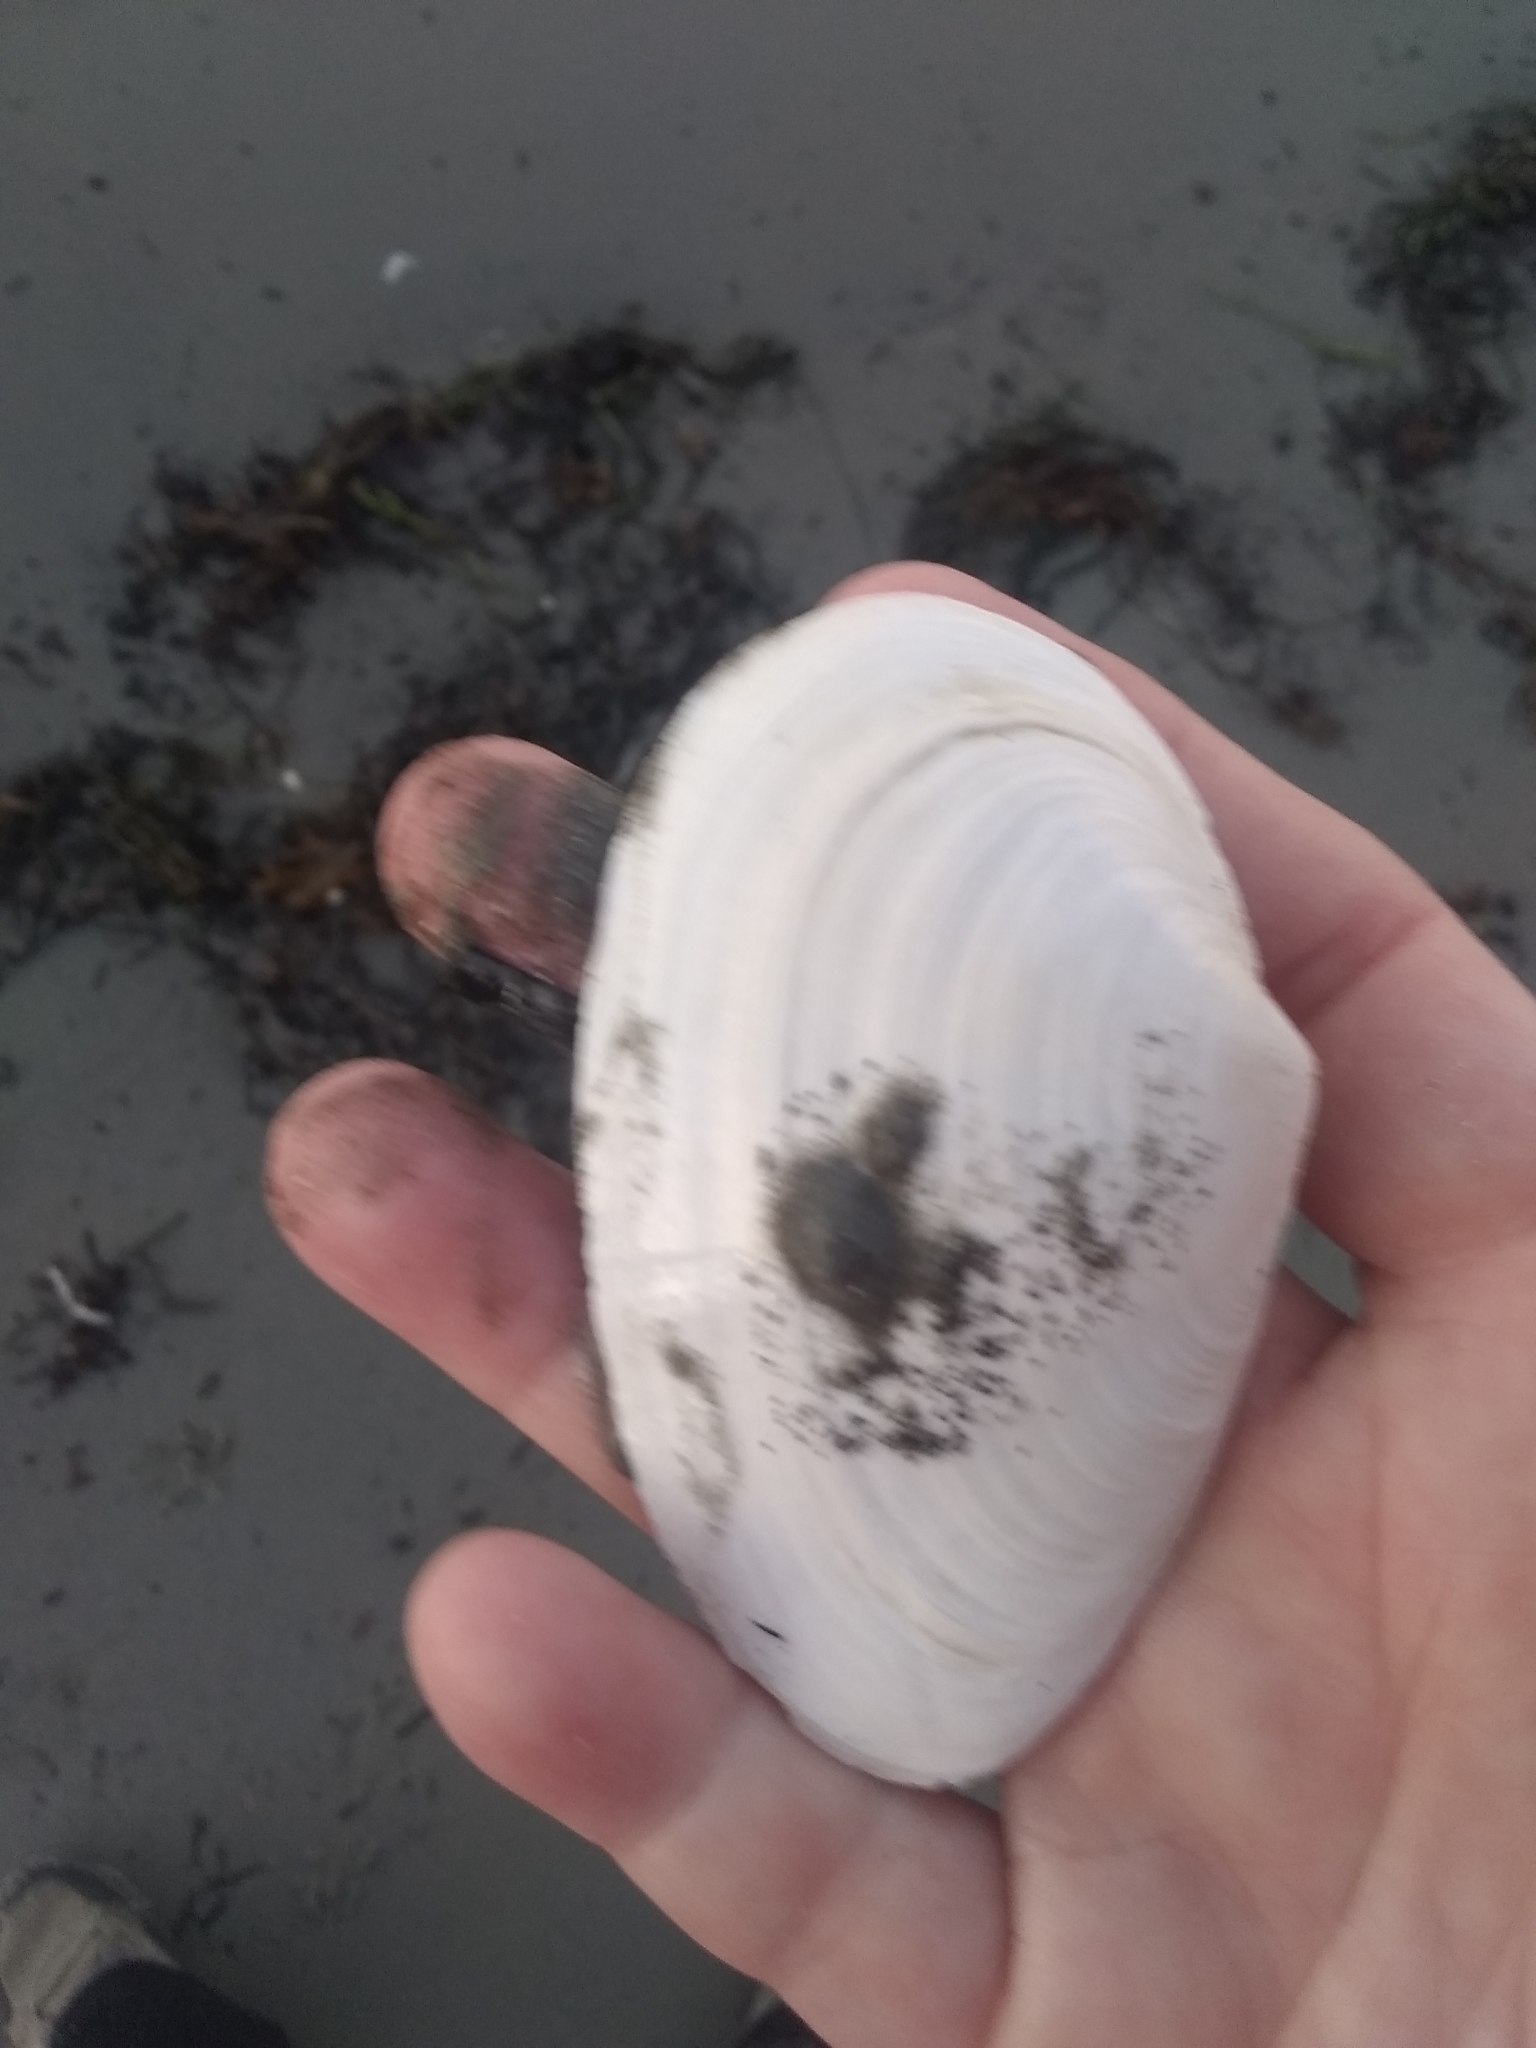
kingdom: Animalia
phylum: Mollusca
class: Bivalvia
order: Myida
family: Myidae
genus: Mya
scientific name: Mya arenaria
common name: Soft-shelled clam
